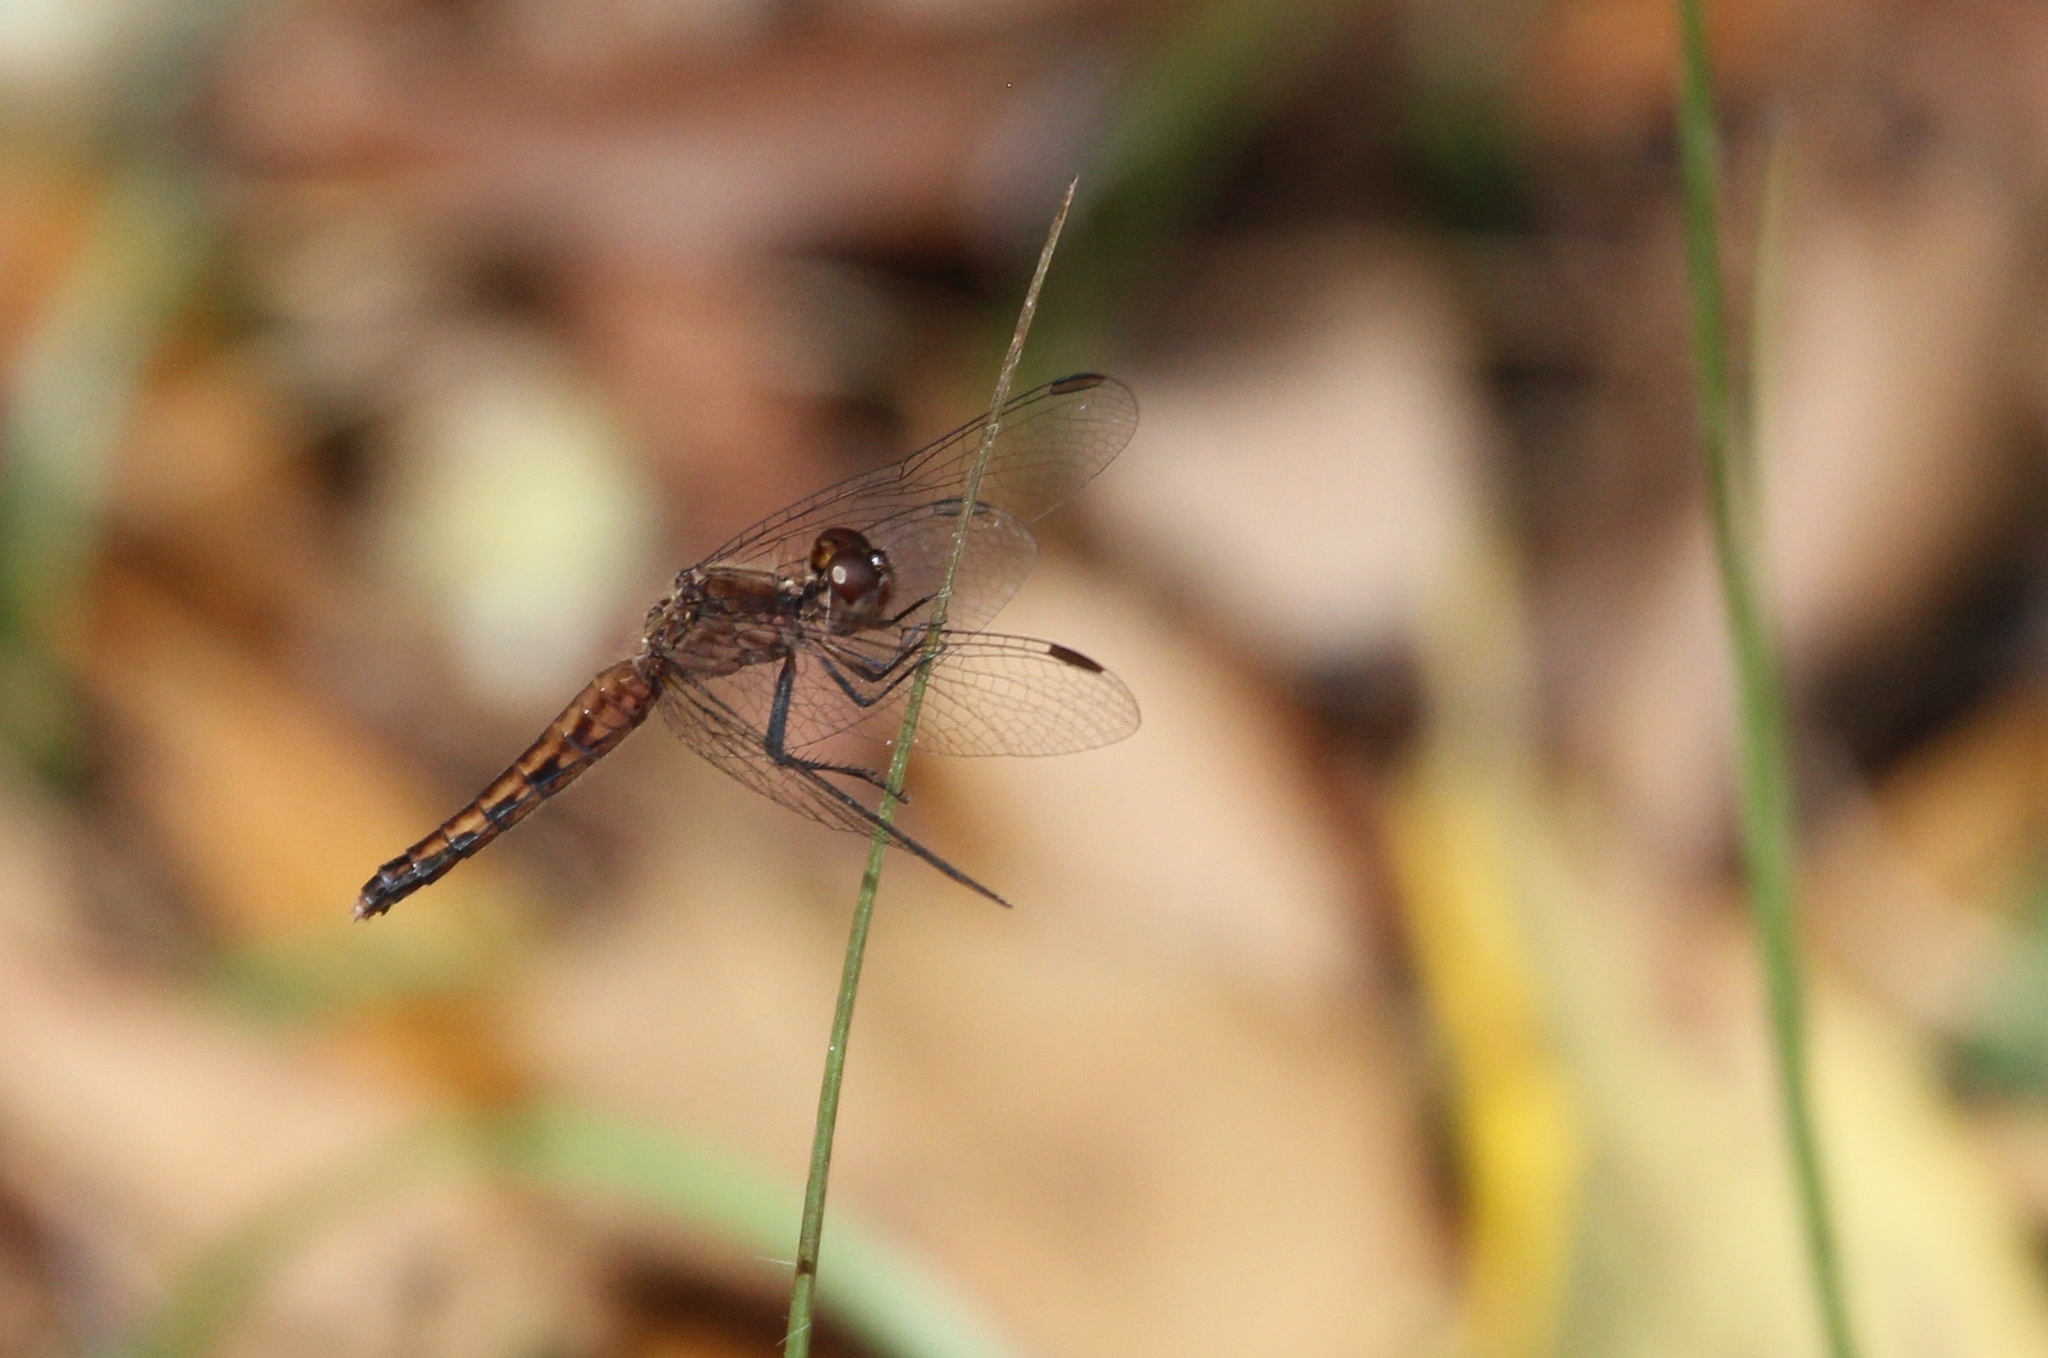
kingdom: Animalia
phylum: Arthropoda
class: Insecta
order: Odonata
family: Libellulidae
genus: Erythrodiplax
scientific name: Erythrodiplax minuscula
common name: Little blue dragonlet
